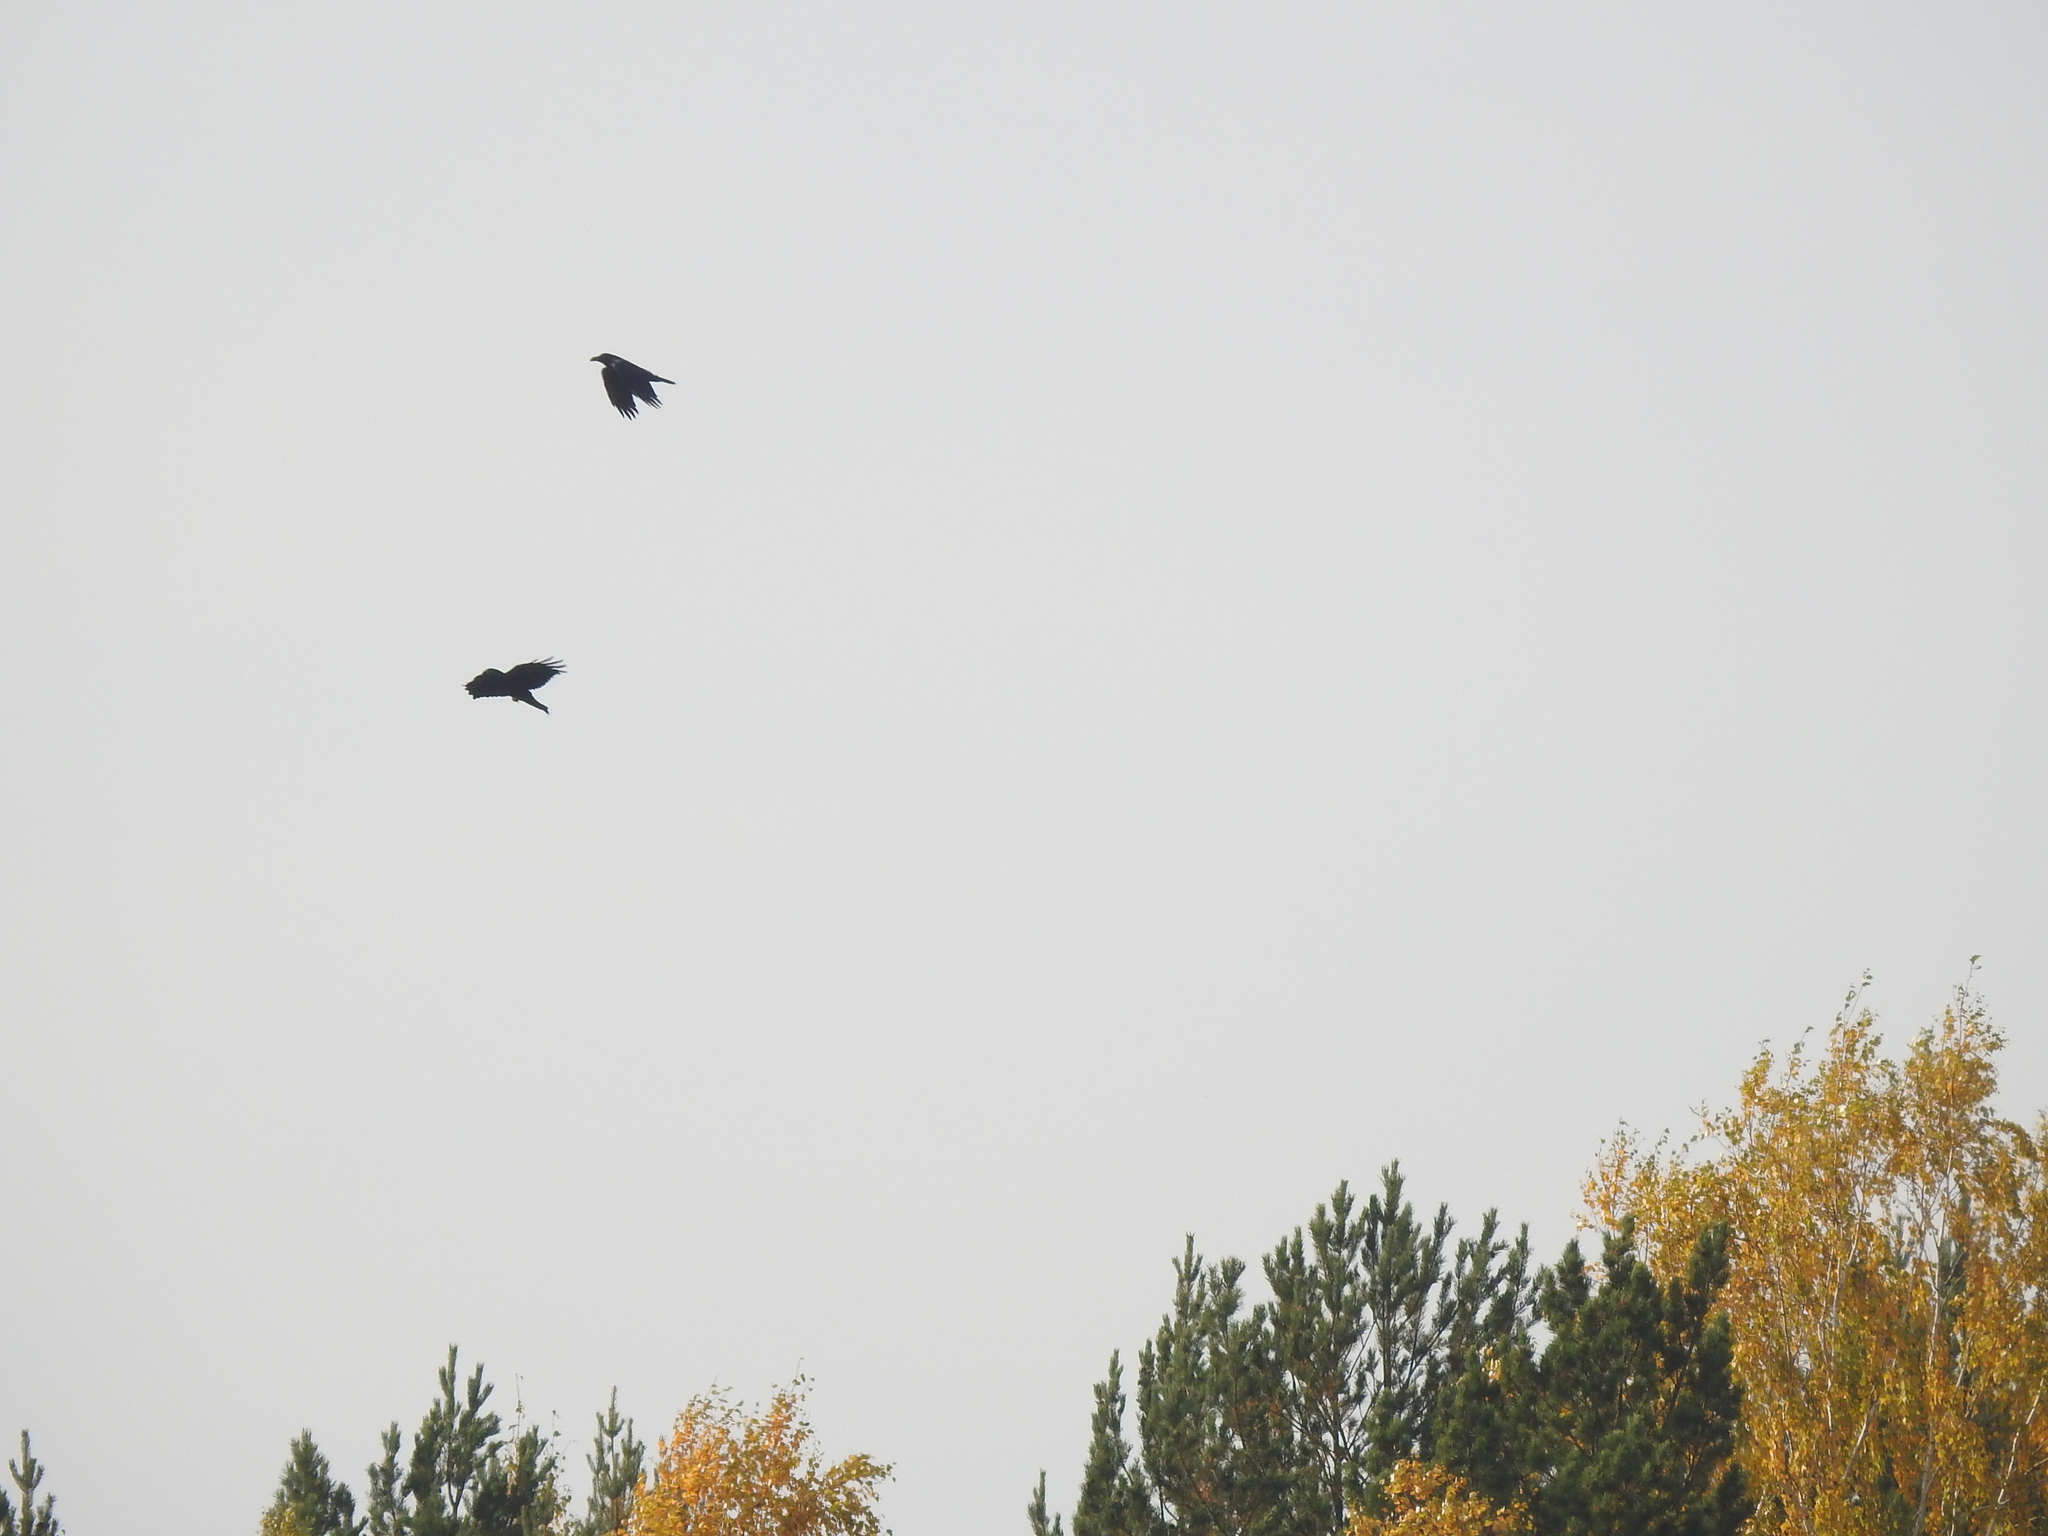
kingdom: Animalia
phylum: Chordata
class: Aves
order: Passeriformes
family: Corvidae
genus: Corvus
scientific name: Corvus corax
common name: Common raven
